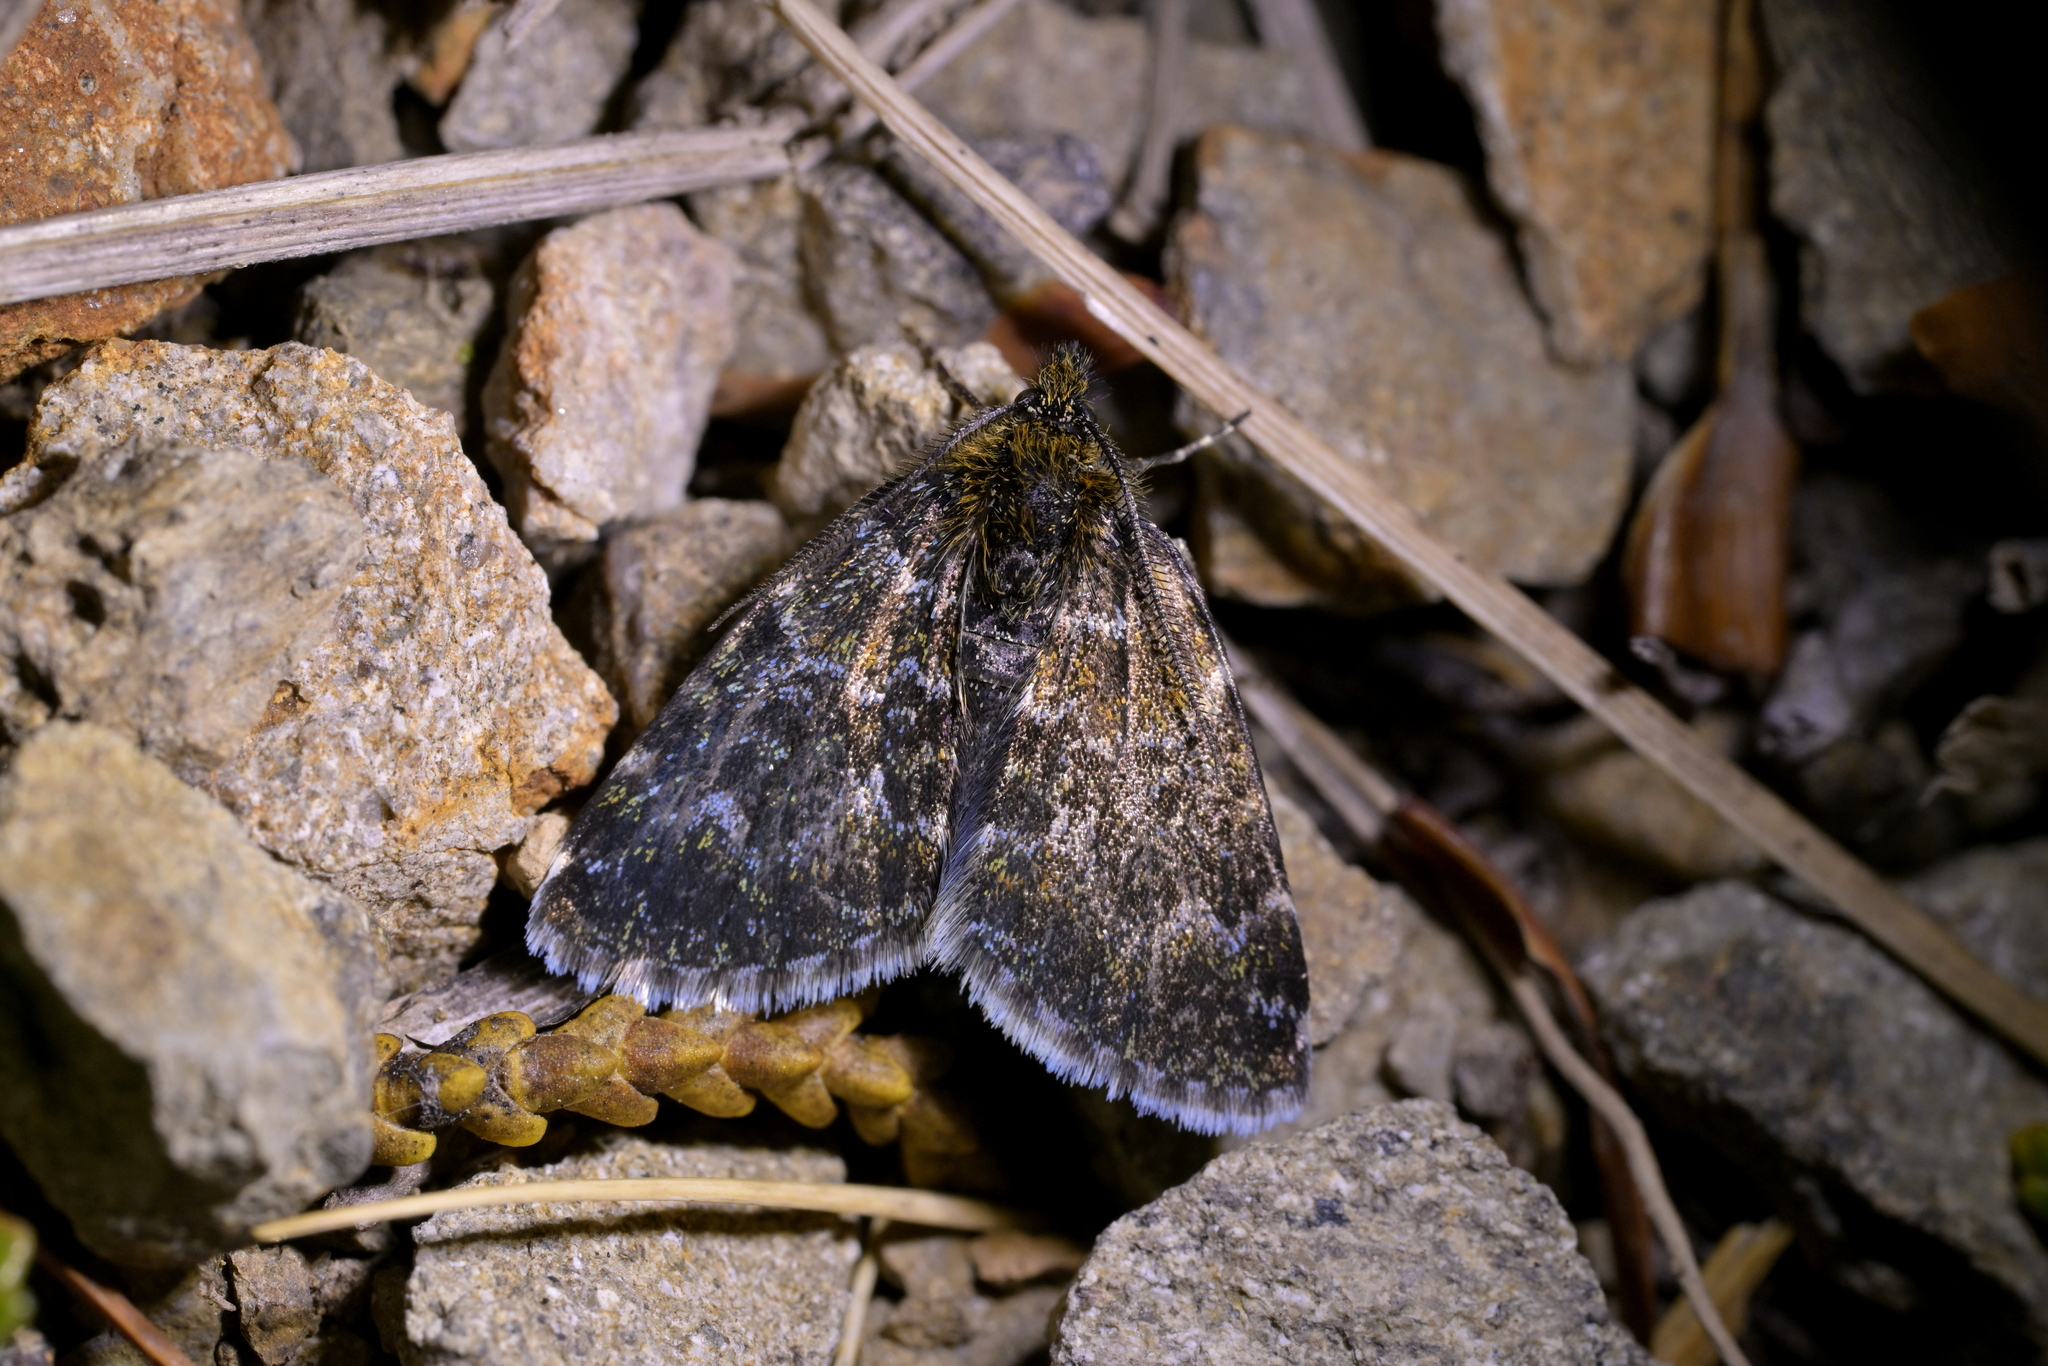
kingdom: Animalia
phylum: Arthropoda
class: Insecta
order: Lepidoptera
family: Geometridae
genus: Notoreas
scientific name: Notoreas arcuata
